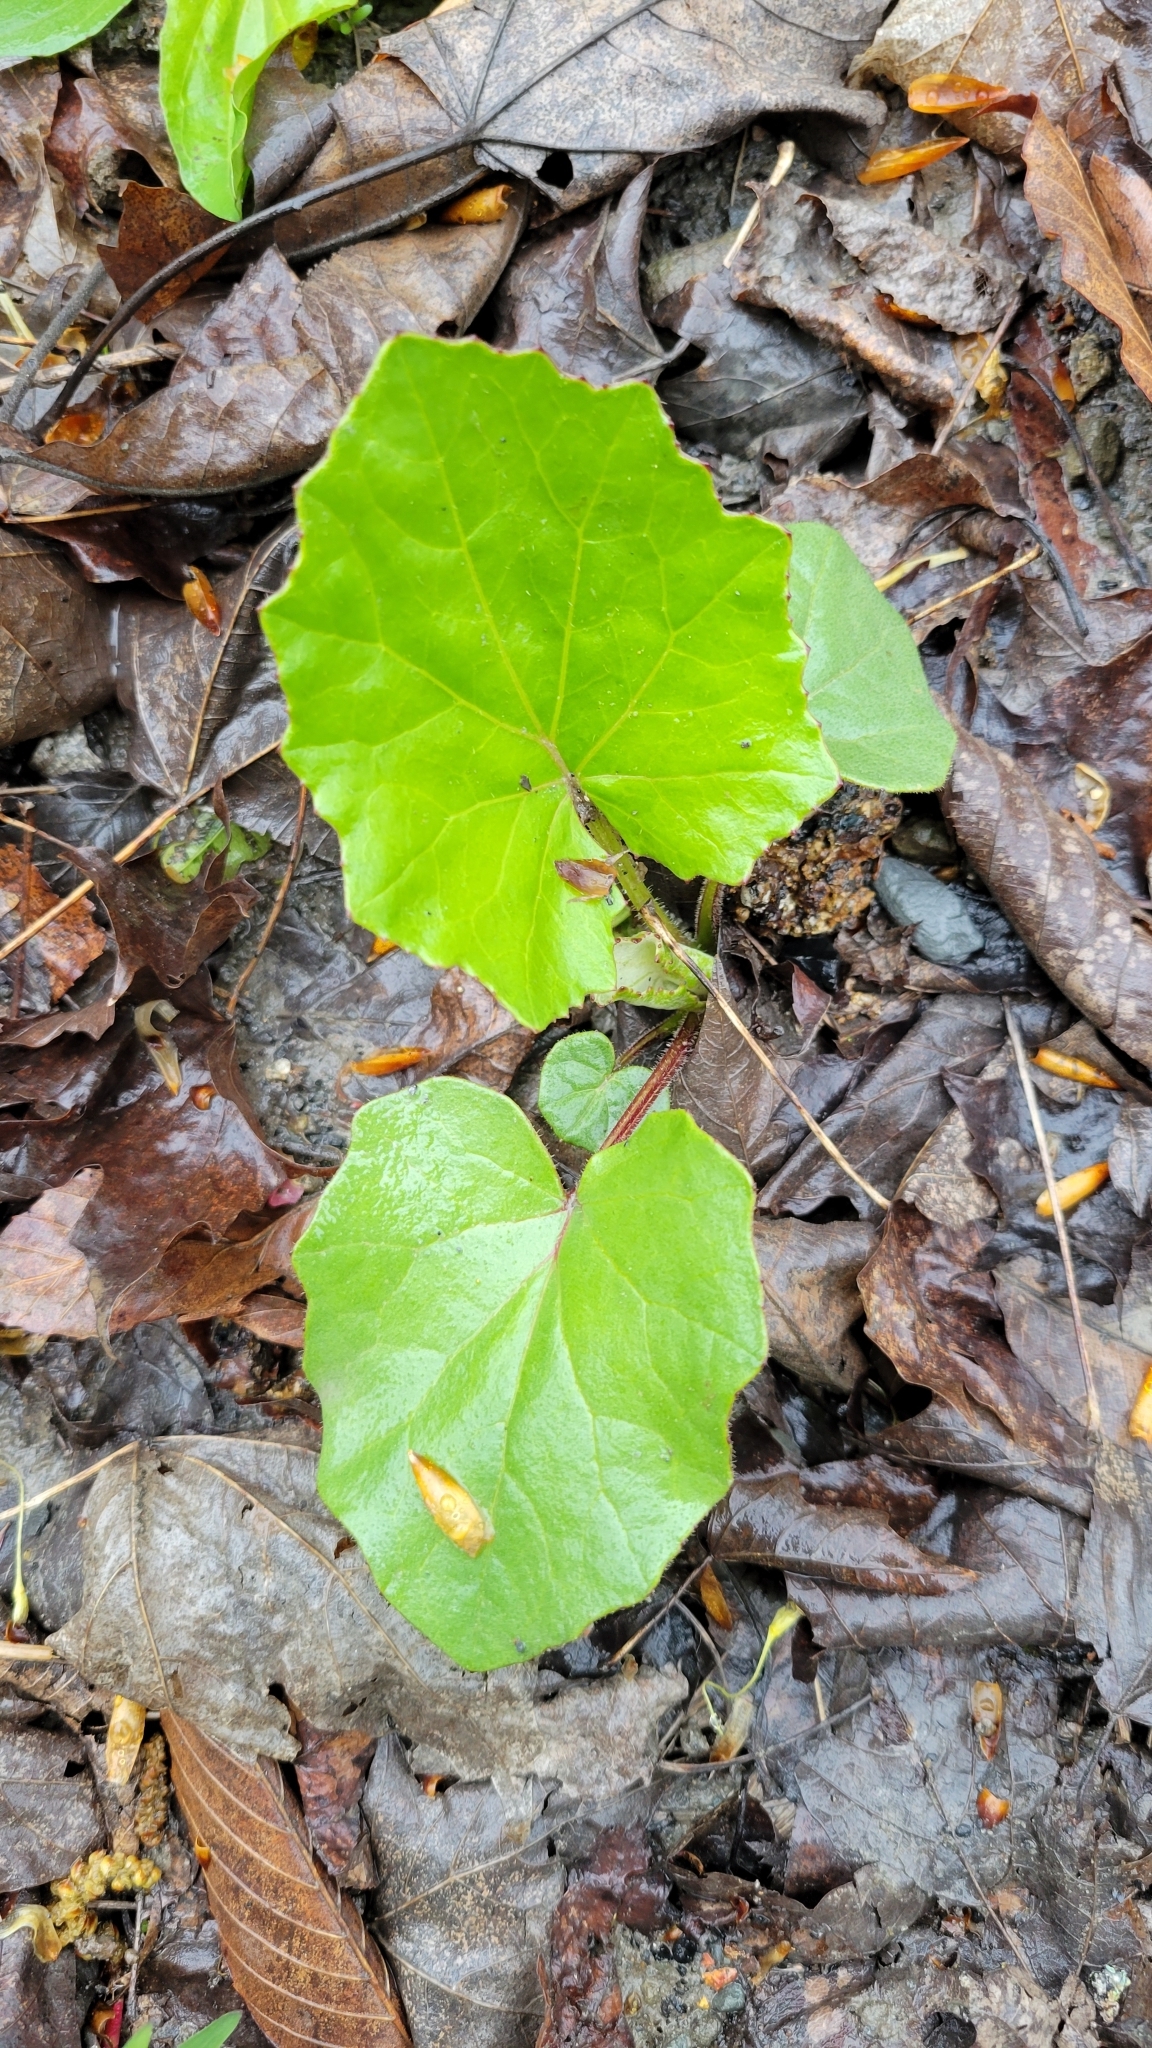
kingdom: Plantae
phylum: Tracheophyta
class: Magnoliopsida
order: Asterales
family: Asteraceae
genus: Tussilago
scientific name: Tussilago farfara
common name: Coltsfoot
